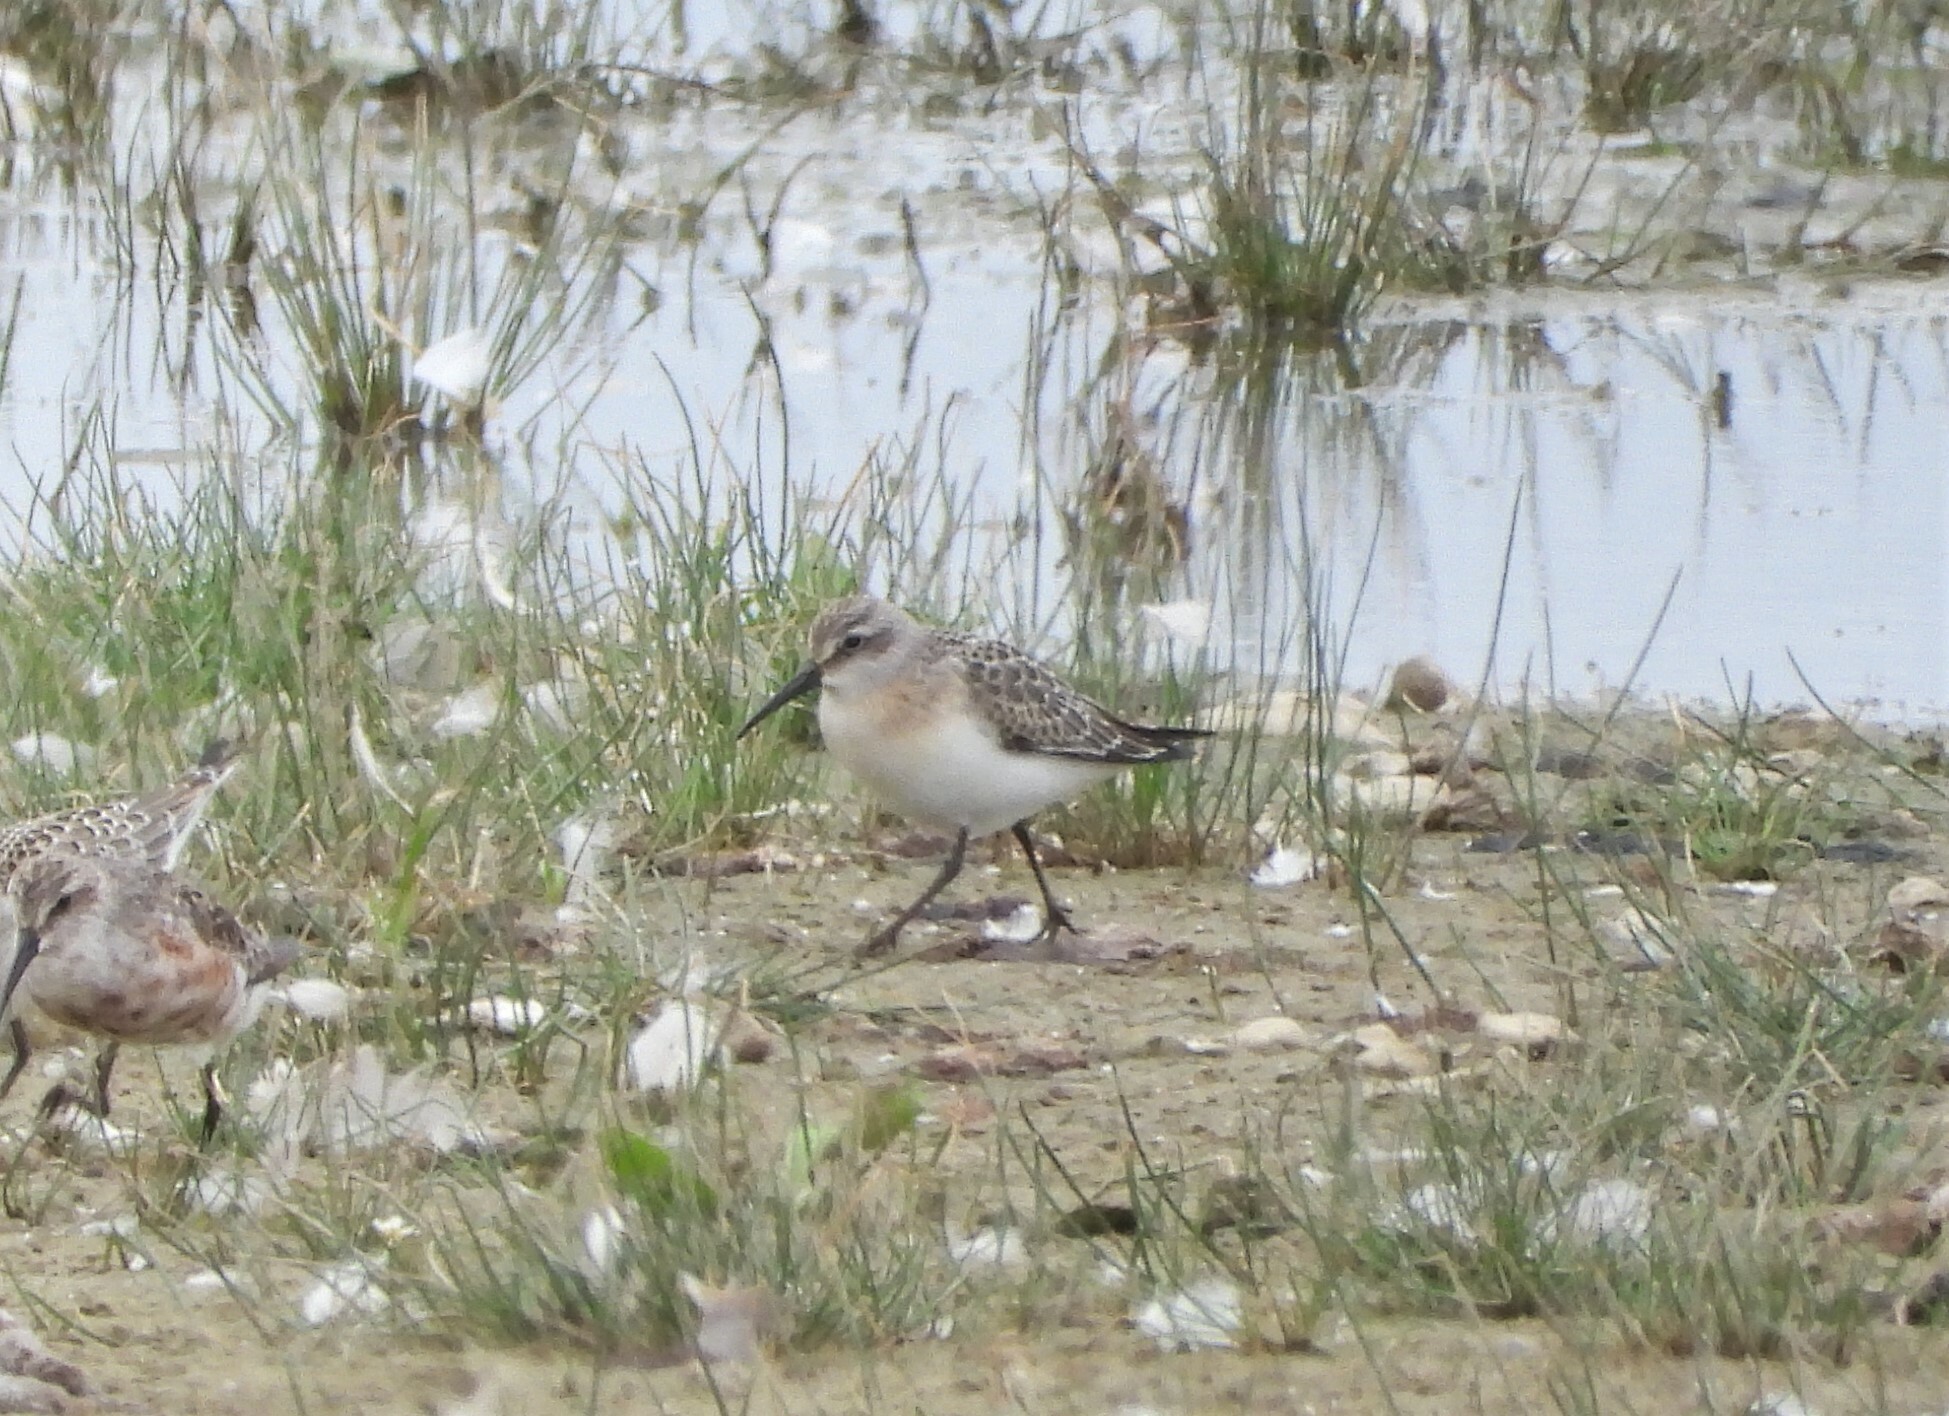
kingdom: Animalia
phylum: Chordata
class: Aves
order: Charadriiformes
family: Scolopacidae
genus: Calidris
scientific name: Calidris ferruginea
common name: Curlew sandpiper
